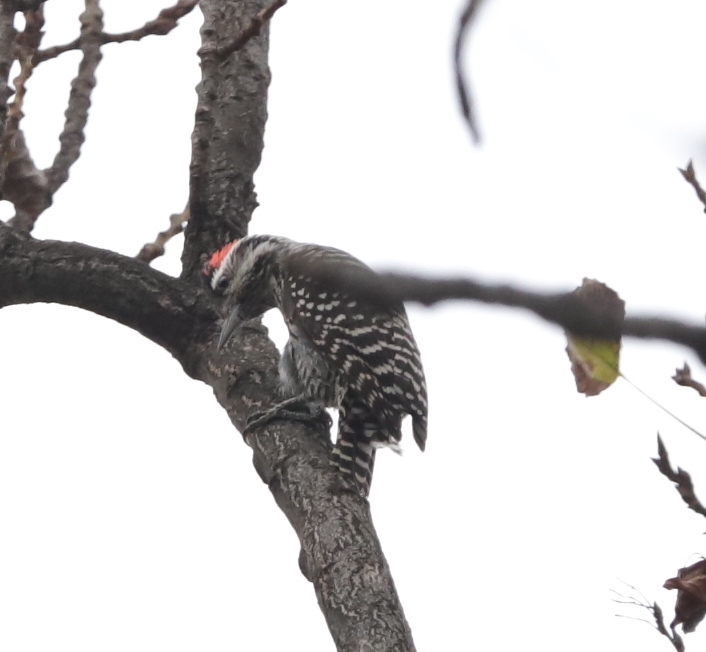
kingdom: Animalia
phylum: Chordata
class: Aves
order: Piciformes
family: Picidae
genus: Veniliornis
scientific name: Veniliornis lignarius
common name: Striped woodpecker
